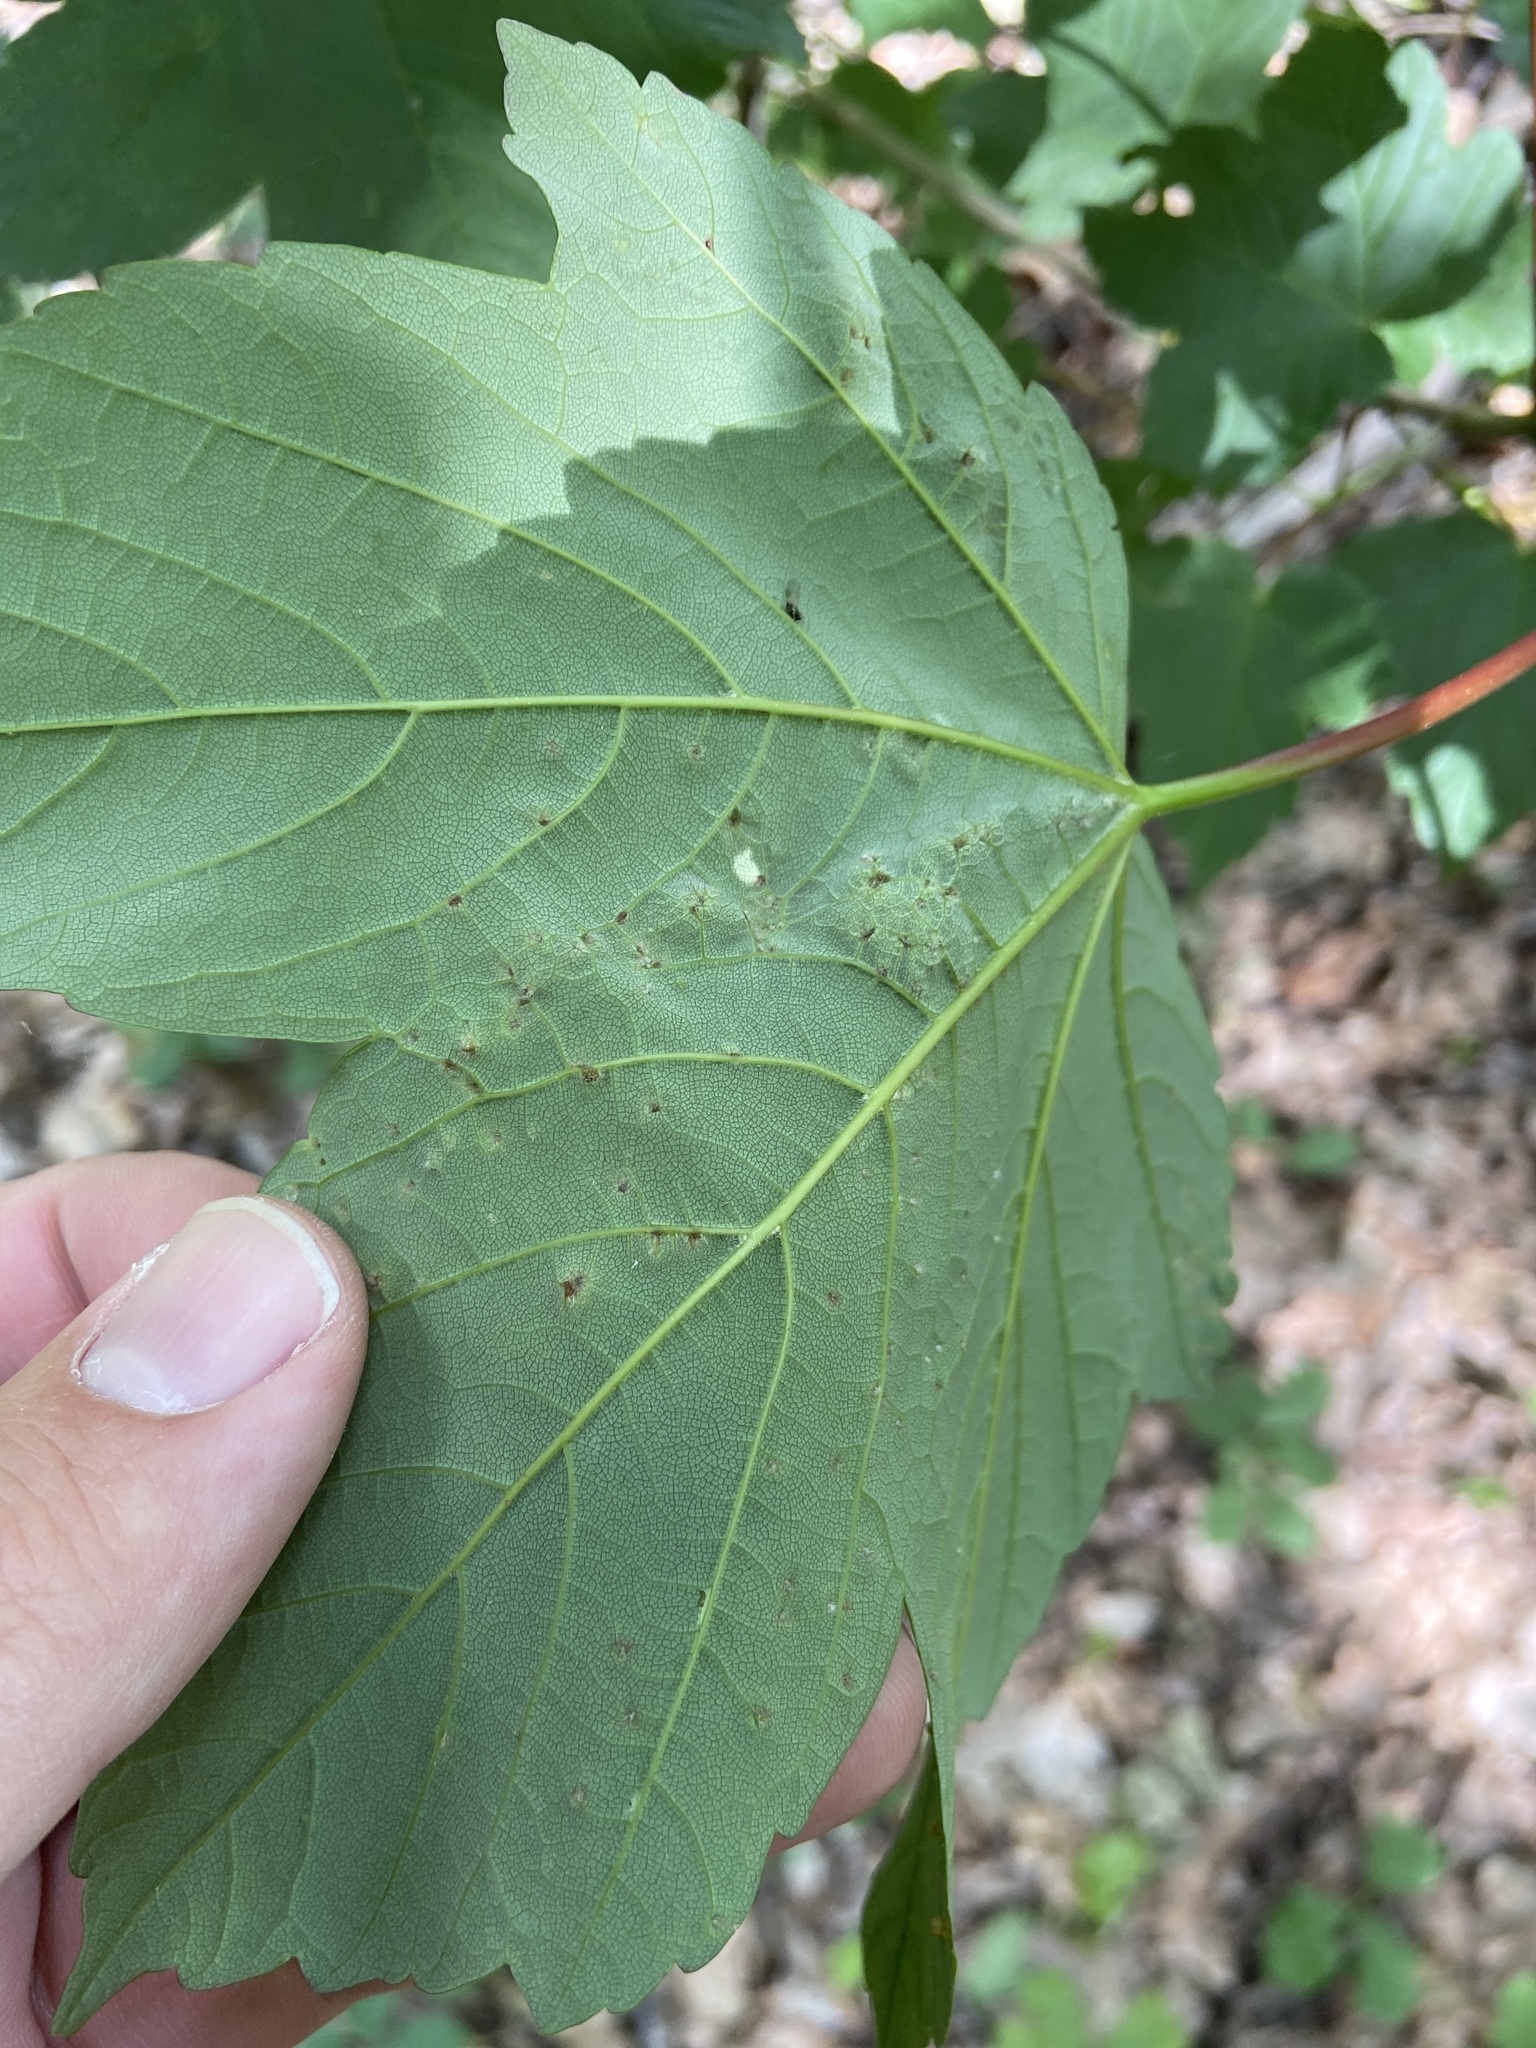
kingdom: Animalia
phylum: Arthropoda
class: Arachnida
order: Trombidiformes
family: Eriophyidae
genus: Aceria
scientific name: Aceria cephaloneus
